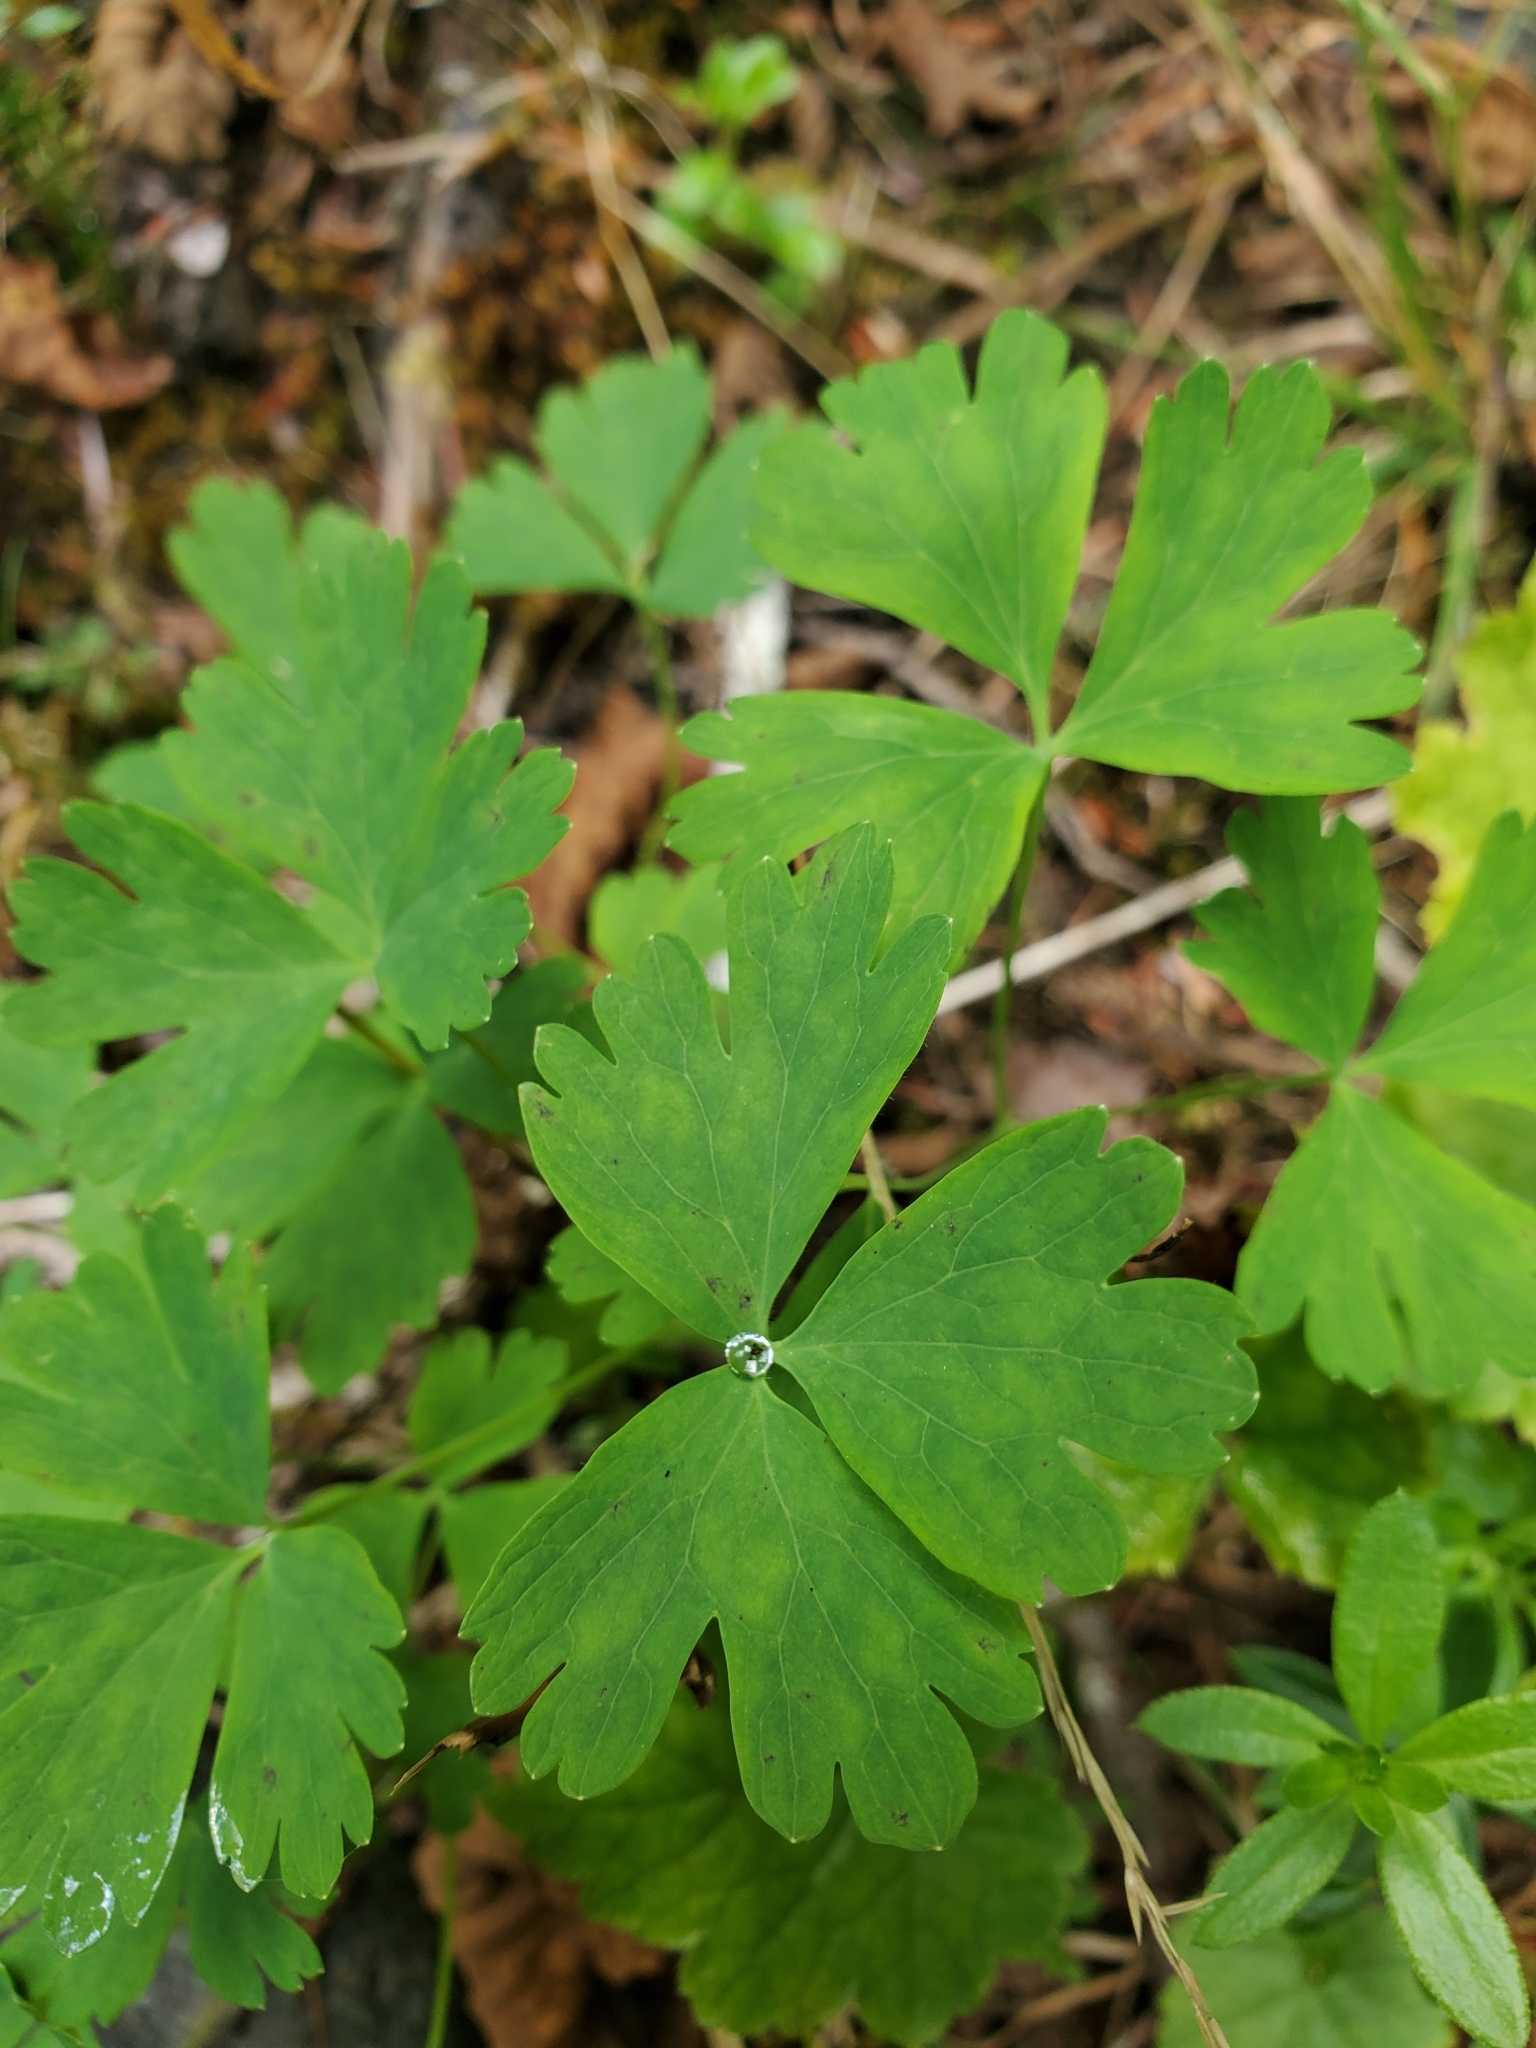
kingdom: Plantae
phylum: Tracheophyta
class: Magnoliopsida
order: Ranunculales
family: Ranunculaceae
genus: Aquilegia
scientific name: Aquilegia formosa
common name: Sitka columbine
